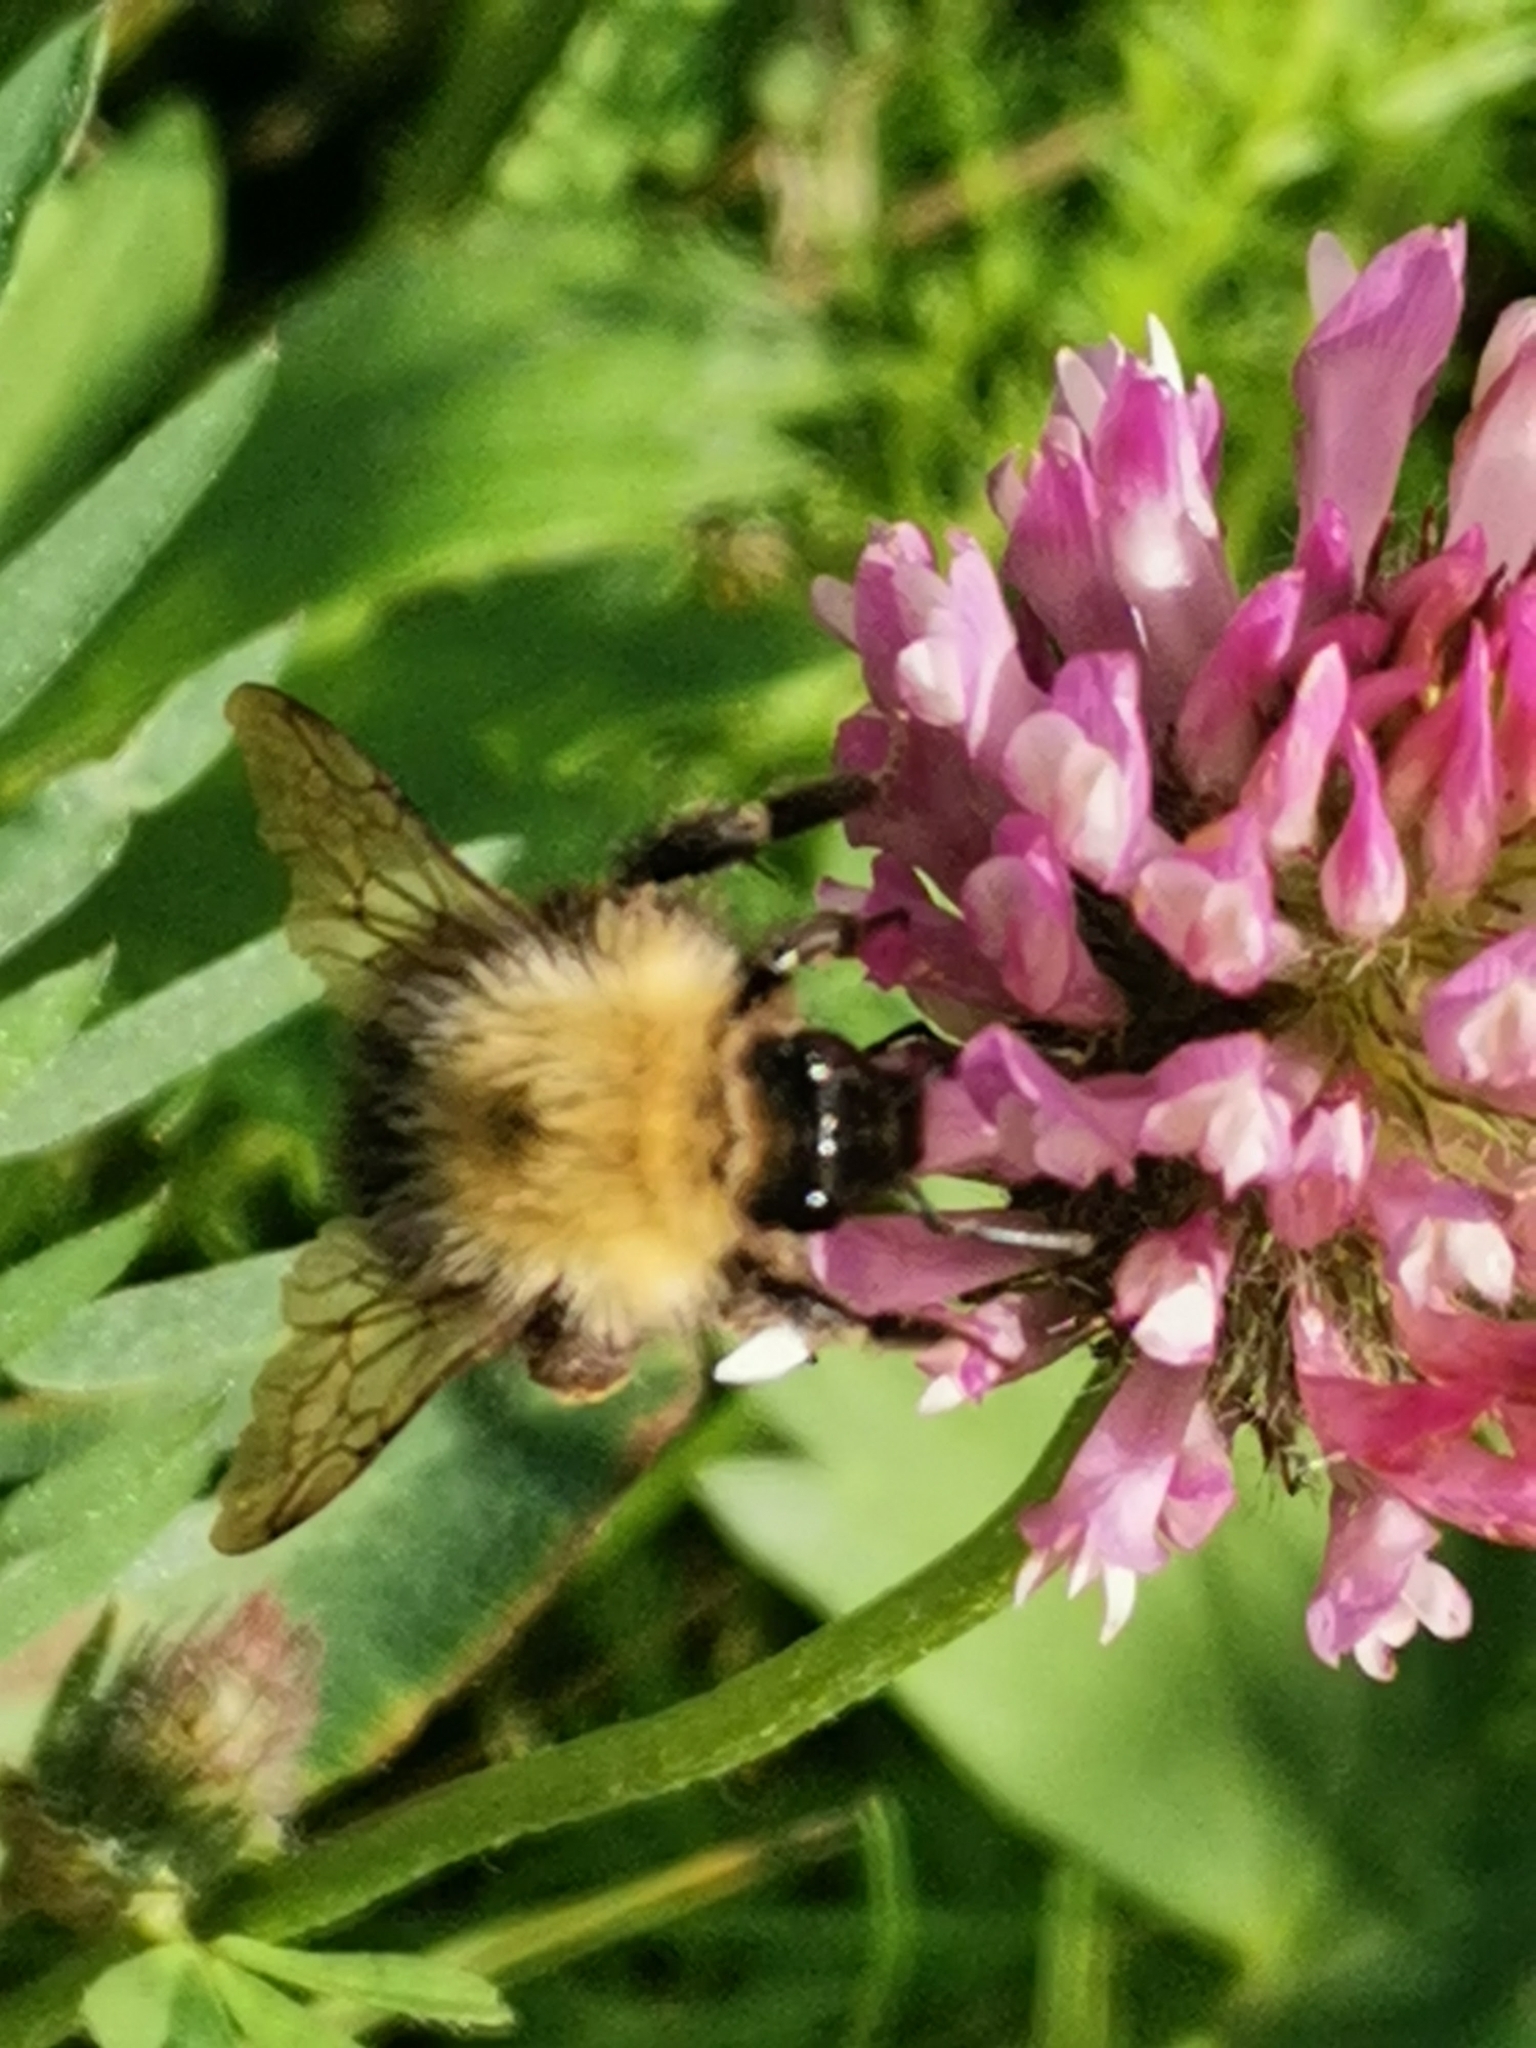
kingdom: Animalia
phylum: Arthropoda
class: Insecta
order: Hymenoptera
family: Apidae
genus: Bombus
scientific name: Bombus pascuorum
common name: Common carder bee
